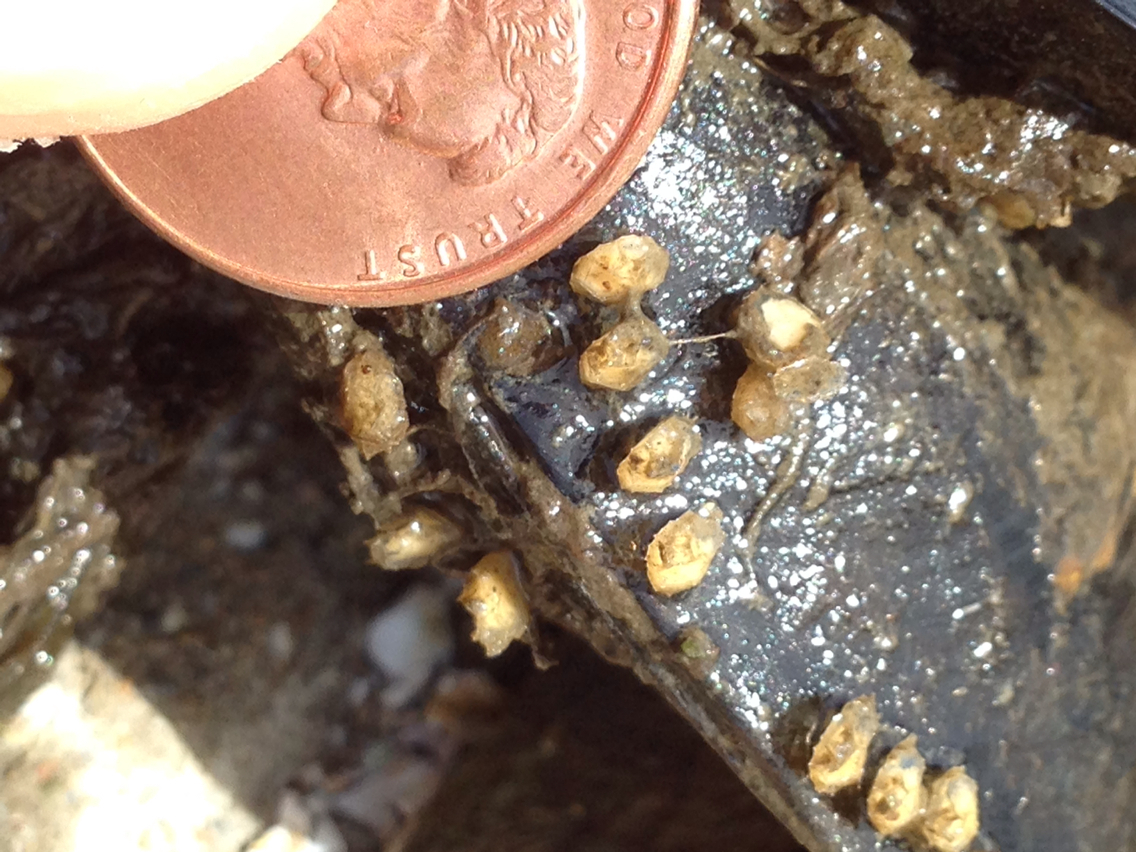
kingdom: Animalia
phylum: Mollusca
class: Gastropoda
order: Neogastropoda
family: Muricidae
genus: Urosalpinx
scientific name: Urosalpinx cinerea
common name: American sting winkle
